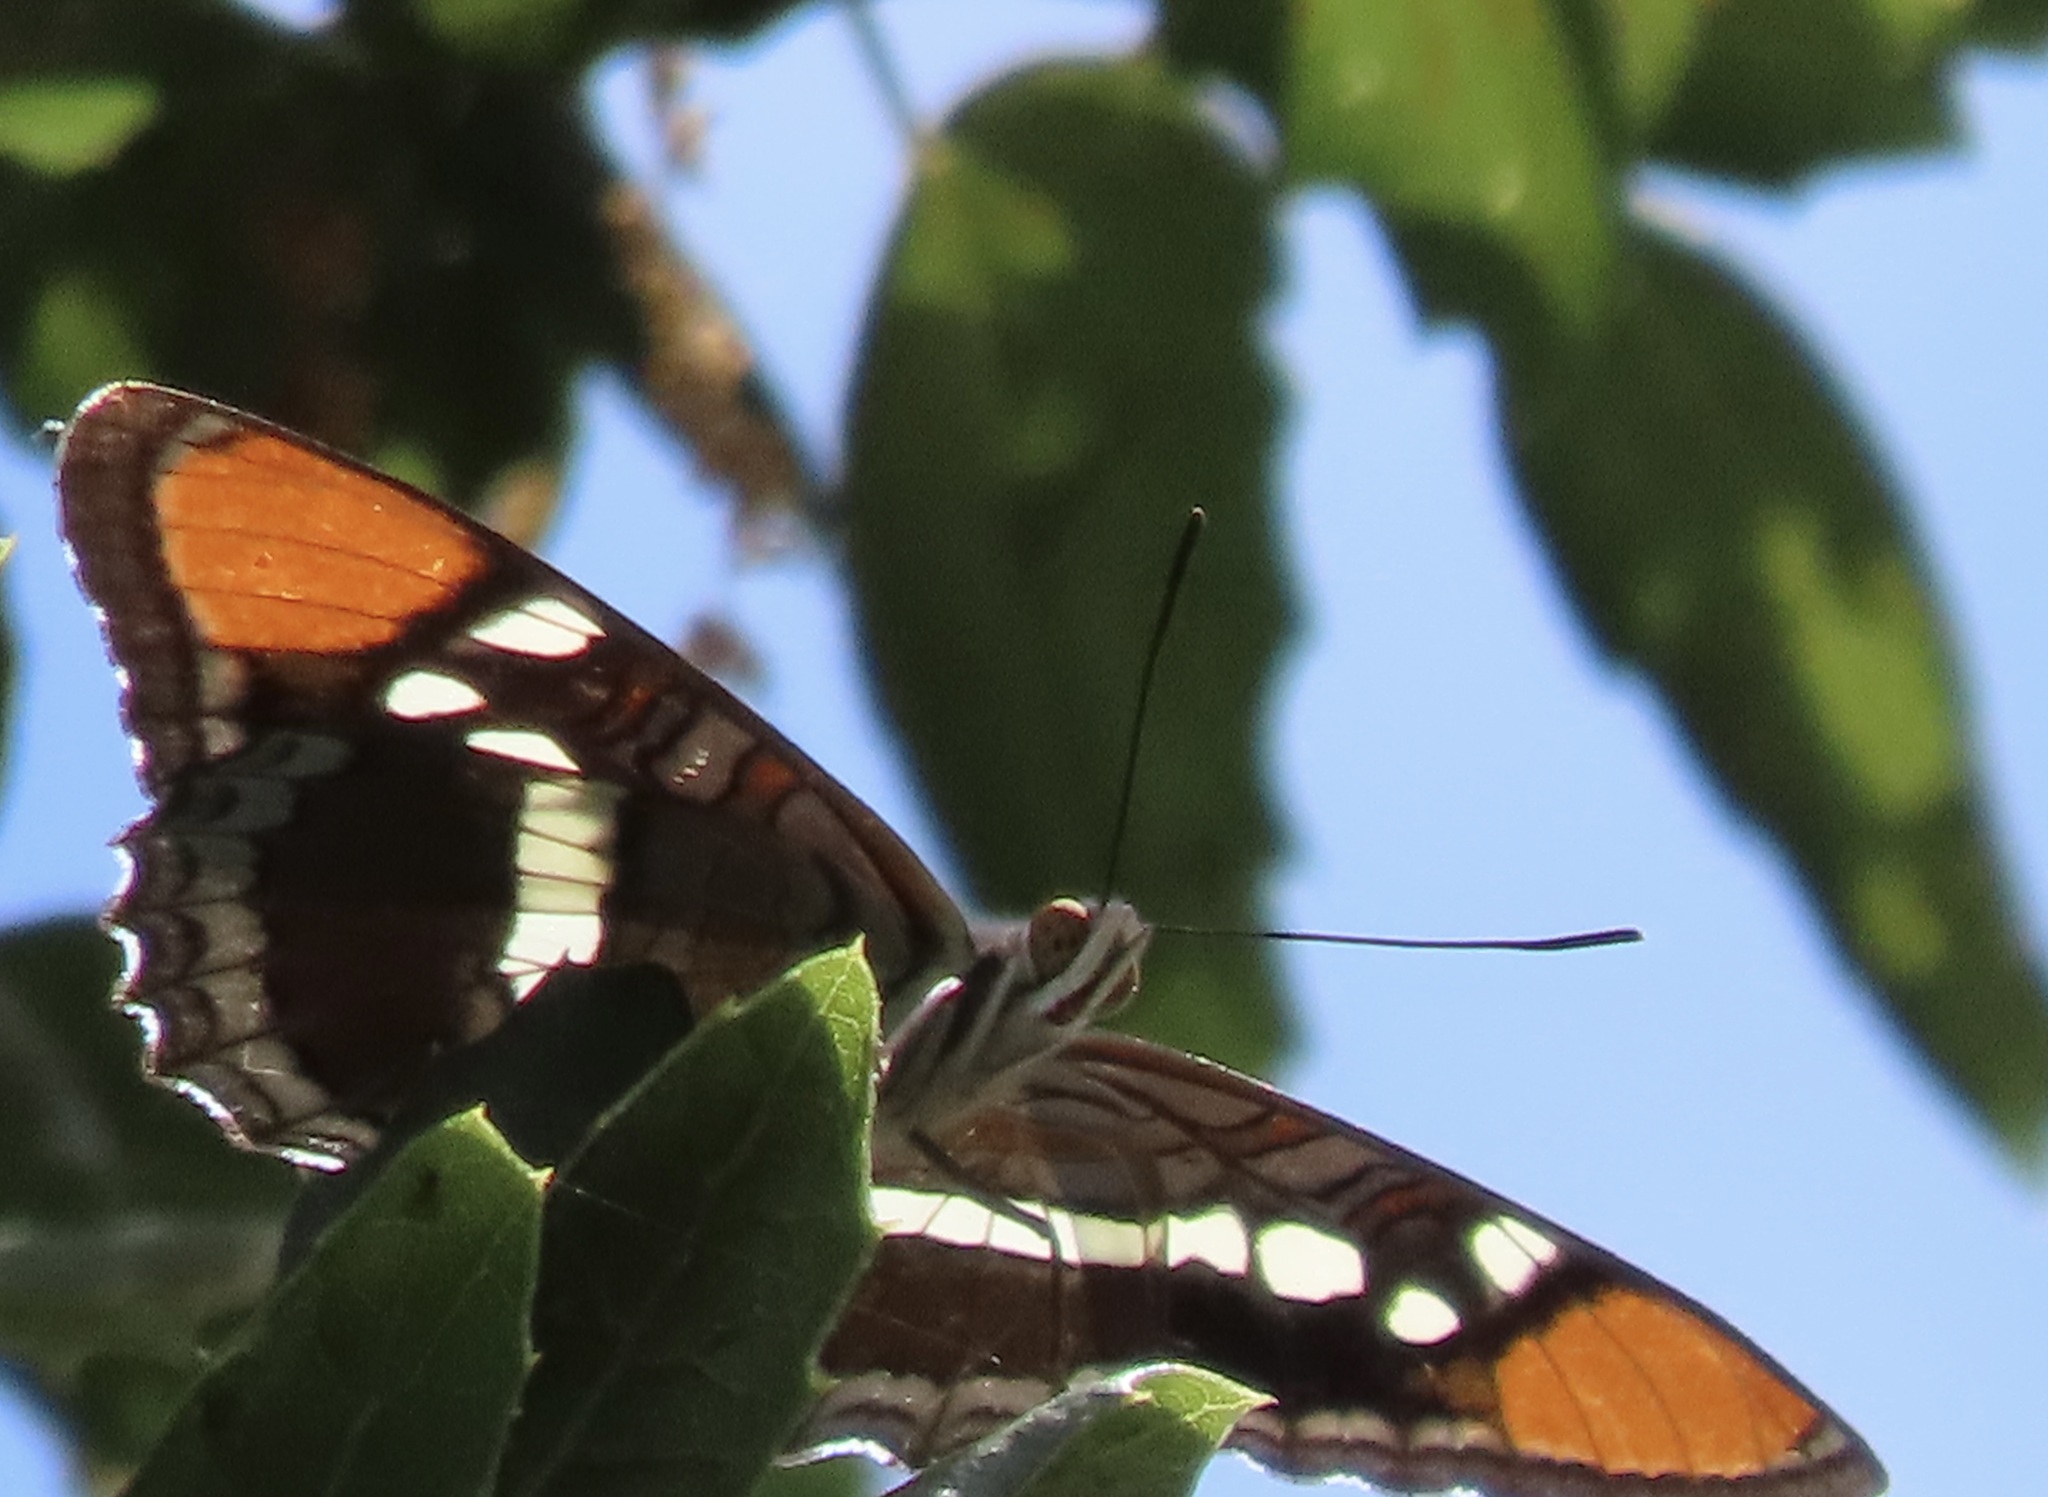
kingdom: Animalia
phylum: Arthropoda
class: Insecta
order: Lepidoptera
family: Nymphalidae
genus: Limenitis
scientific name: Limenitis bredowii
